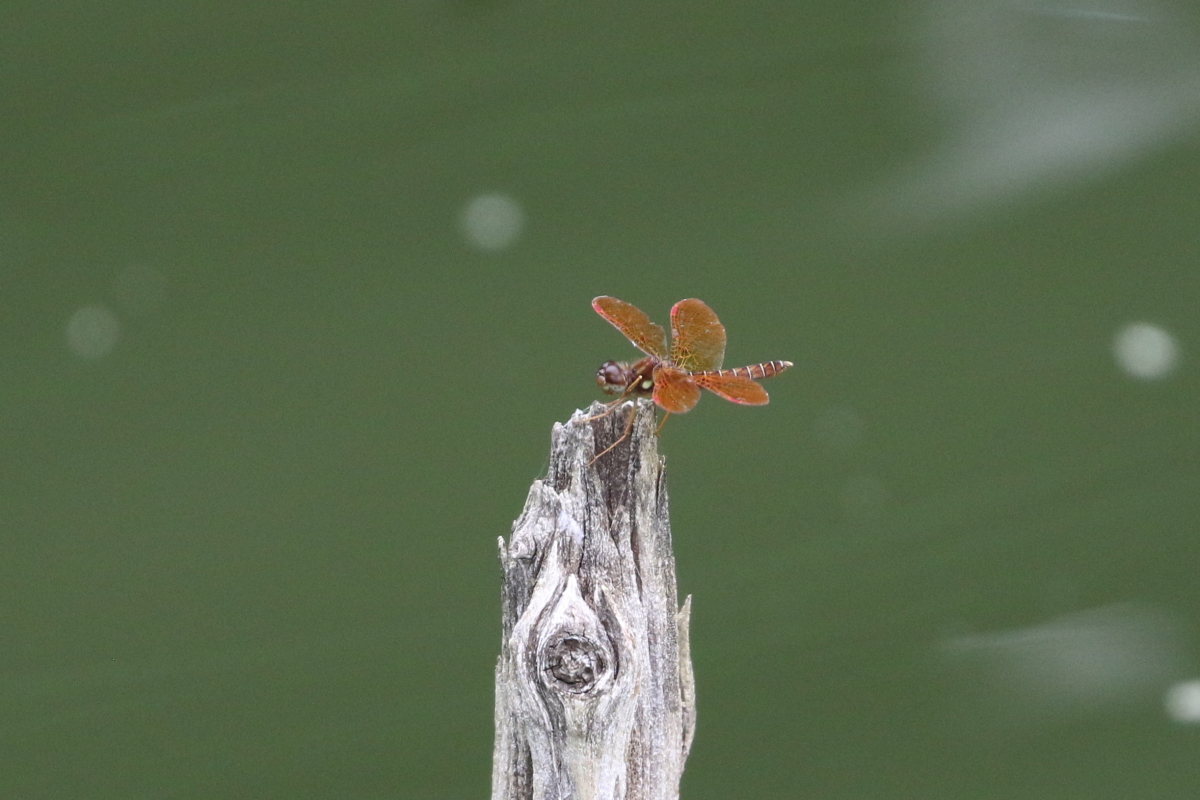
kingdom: Animalia
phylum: Arthropoda
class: Insecta
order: Odonata
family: Libellulidae
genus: Perithemis
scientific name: Perithemis tenera
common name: Eastern amberwing
